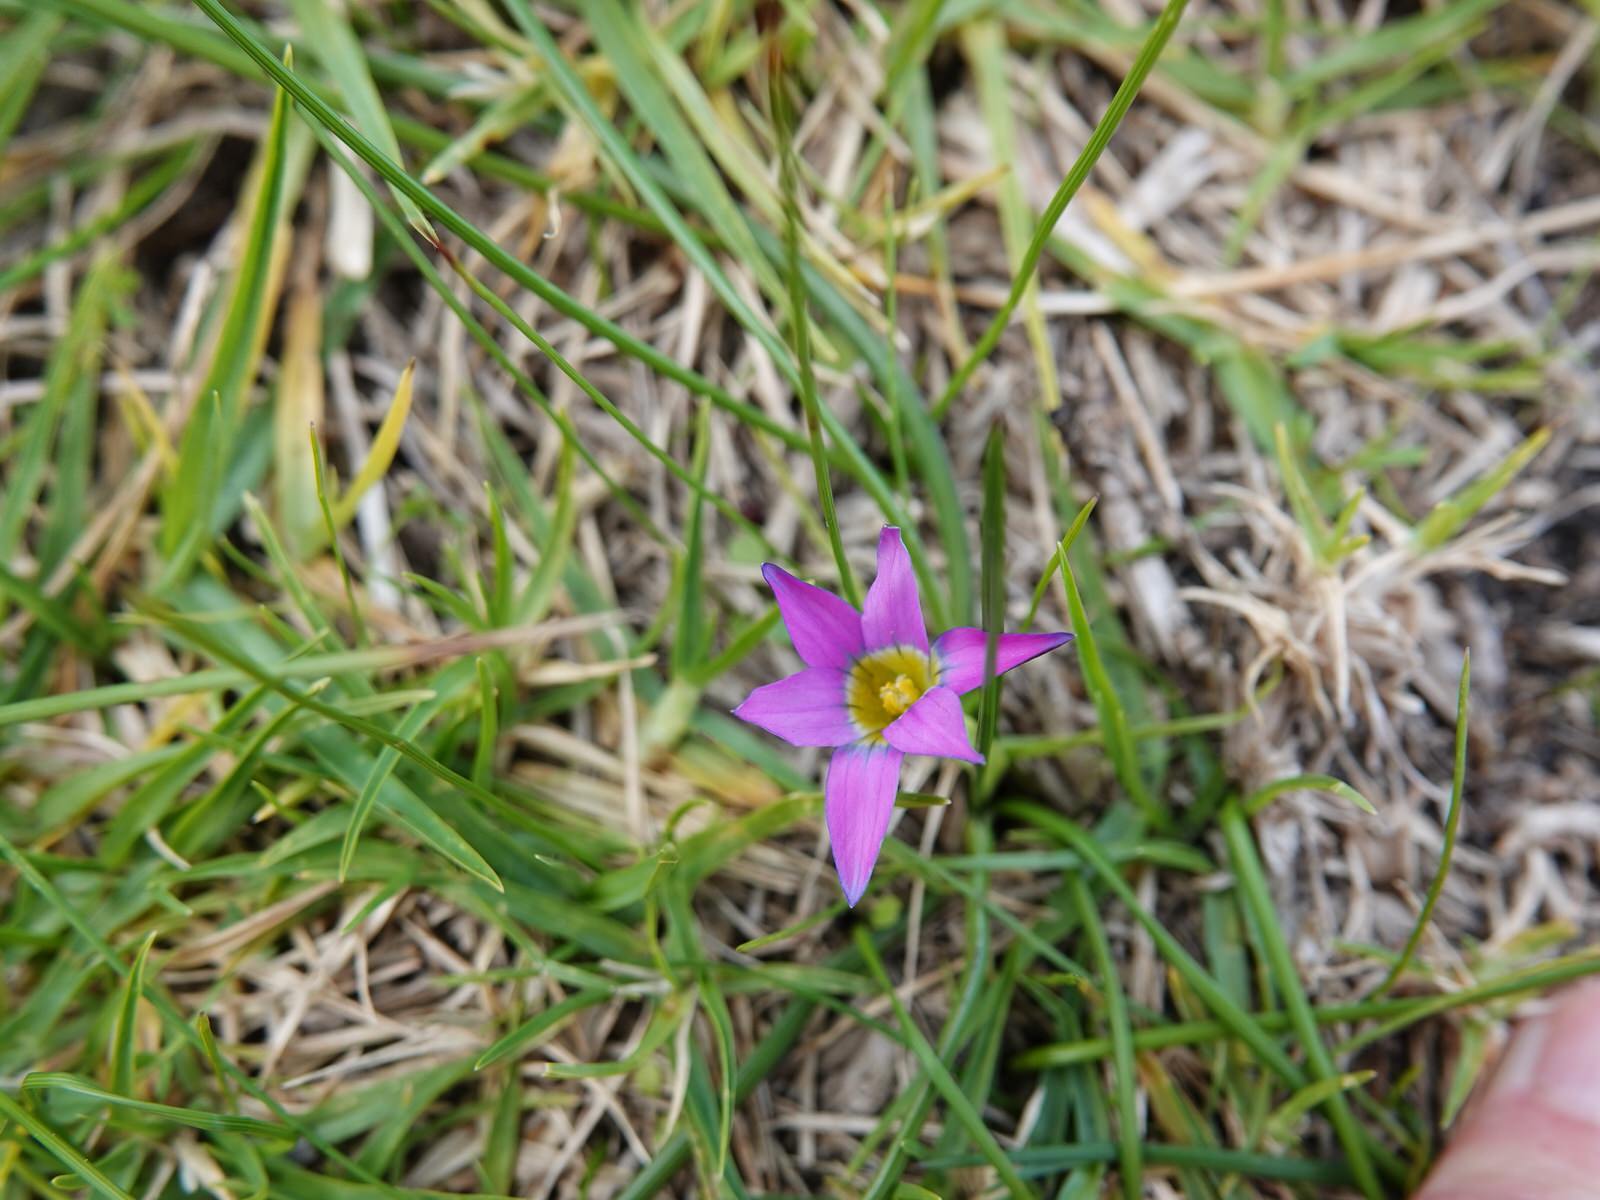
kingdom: Plantae
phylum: Tracheophyta
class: Liliopsida
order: Asparagales
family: Iridaceae
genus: Romulea
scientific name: Romulea rosea
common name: Oniongrass
